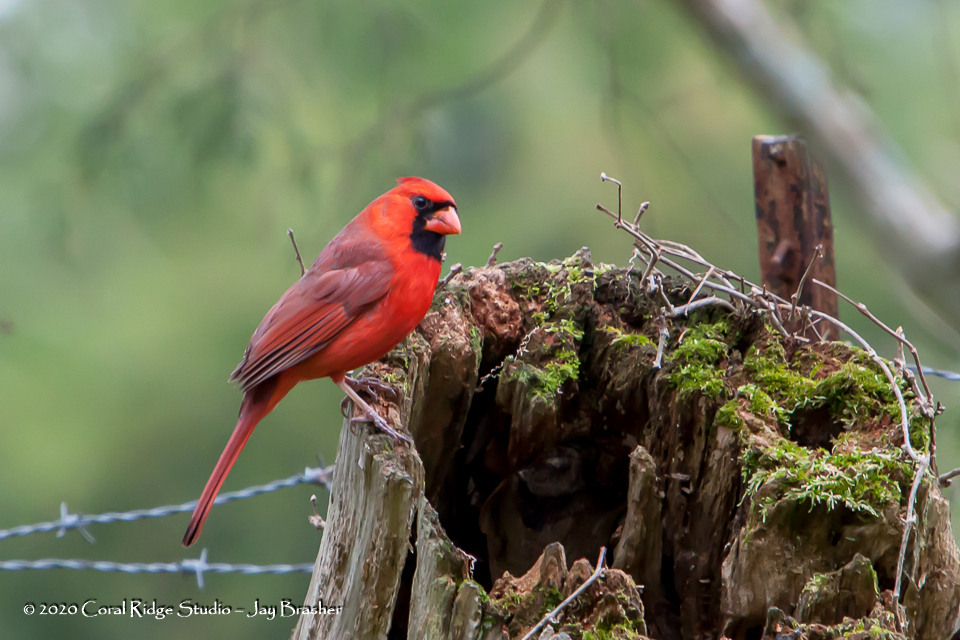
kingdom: Animalia
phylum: Chordata
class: Aves
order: Passeriformes
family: Cardinalidae
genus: Cardinalis
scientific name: Cardinalis cardinalis
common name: Northern cardinal
